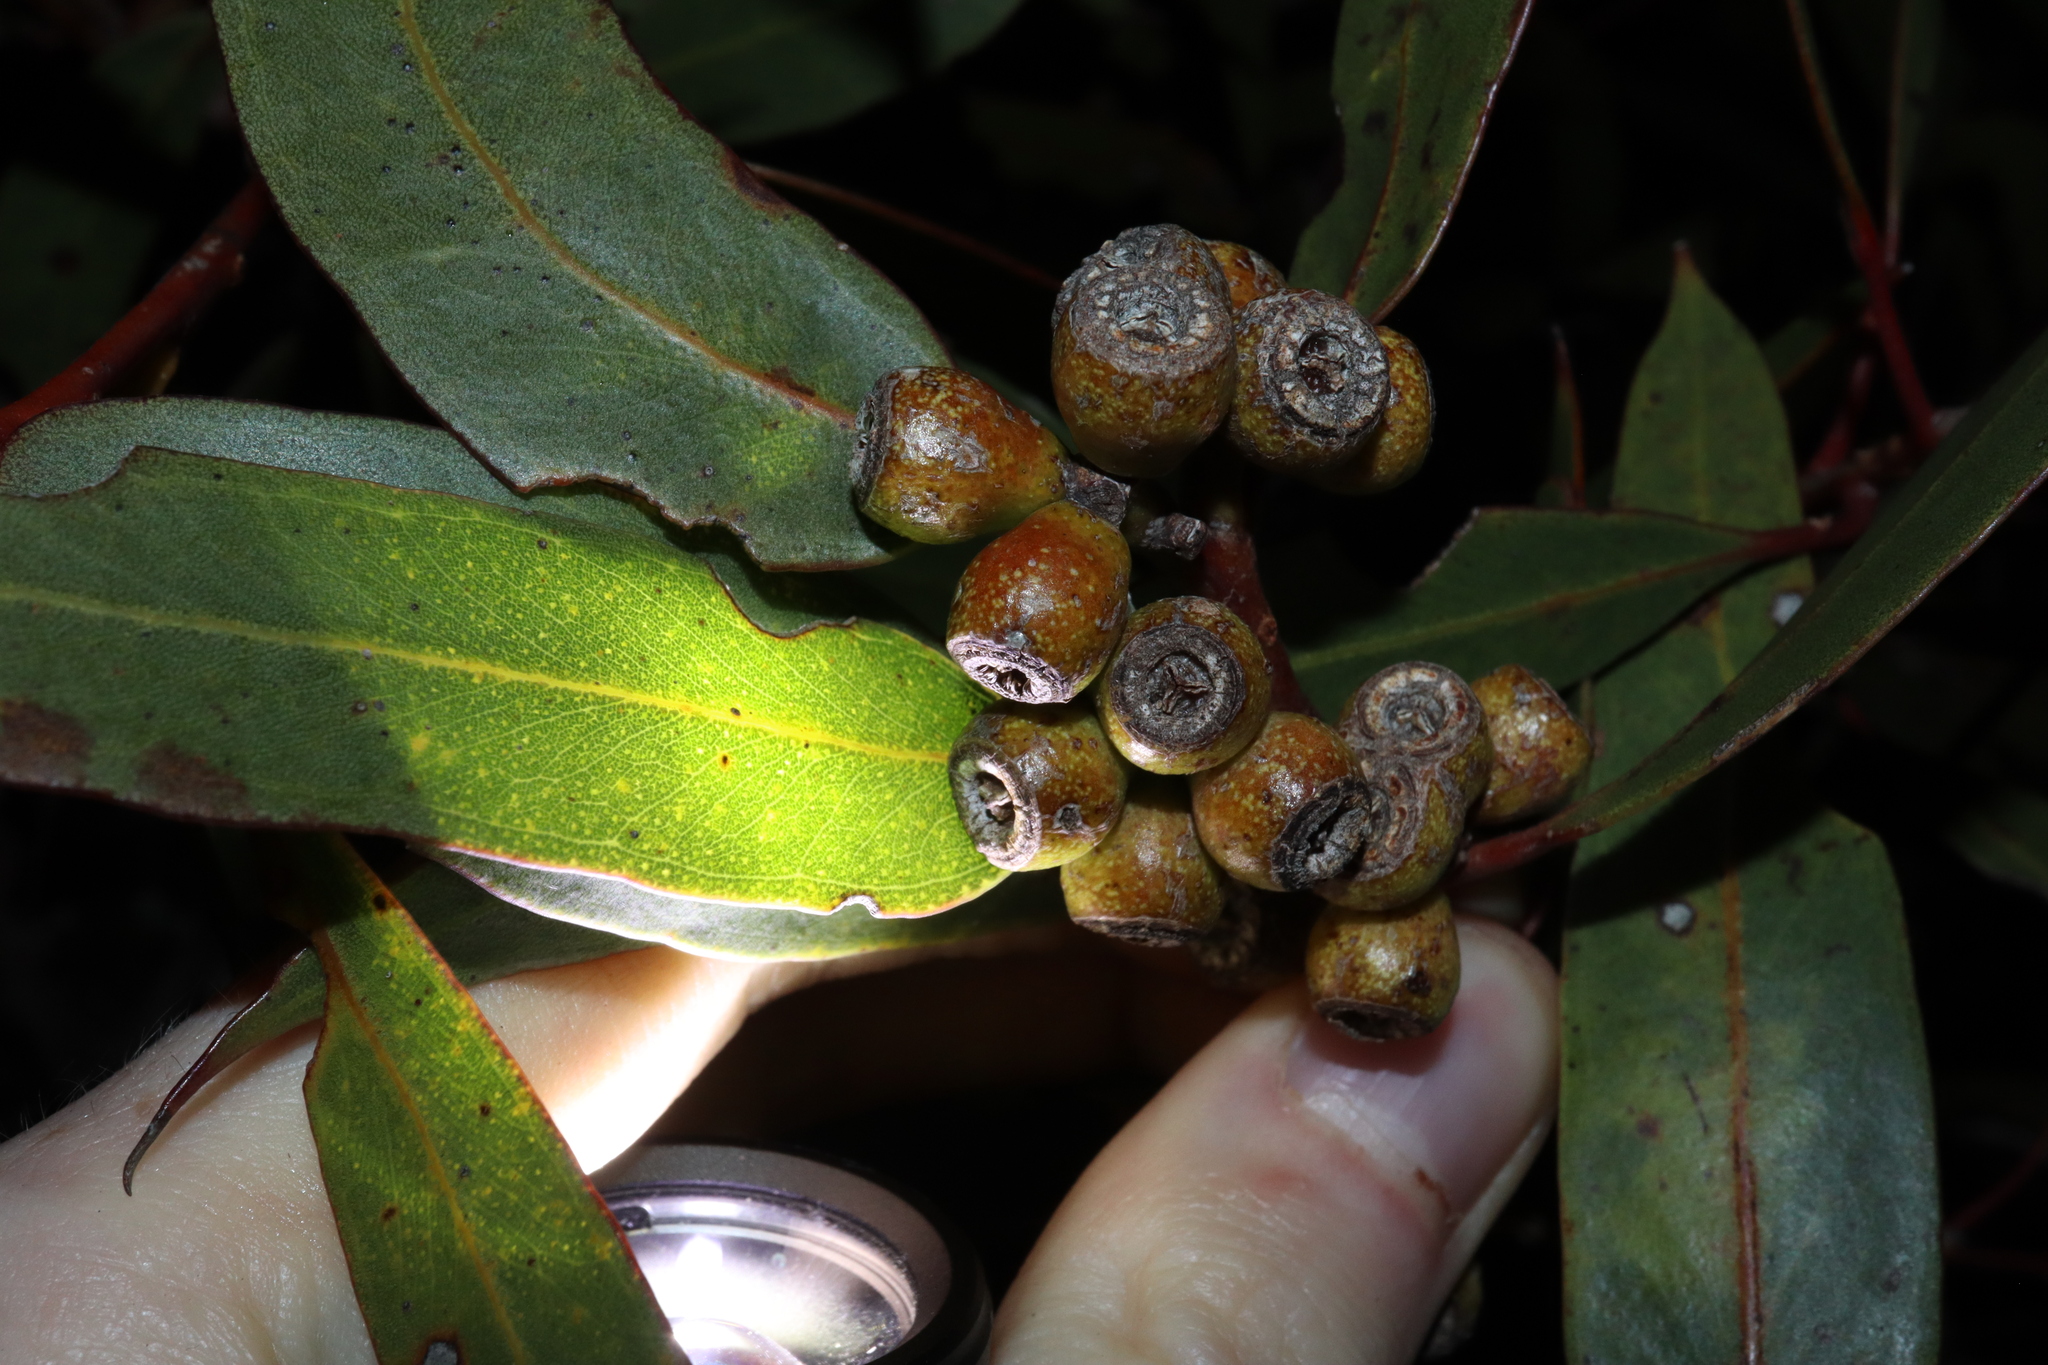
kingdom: Plantae
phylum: Tracheophyta
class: Magnoliopsida
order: Myrtales
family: Myrtaceae
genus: Eucalyptus
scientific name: Eucalyptus micranthera
